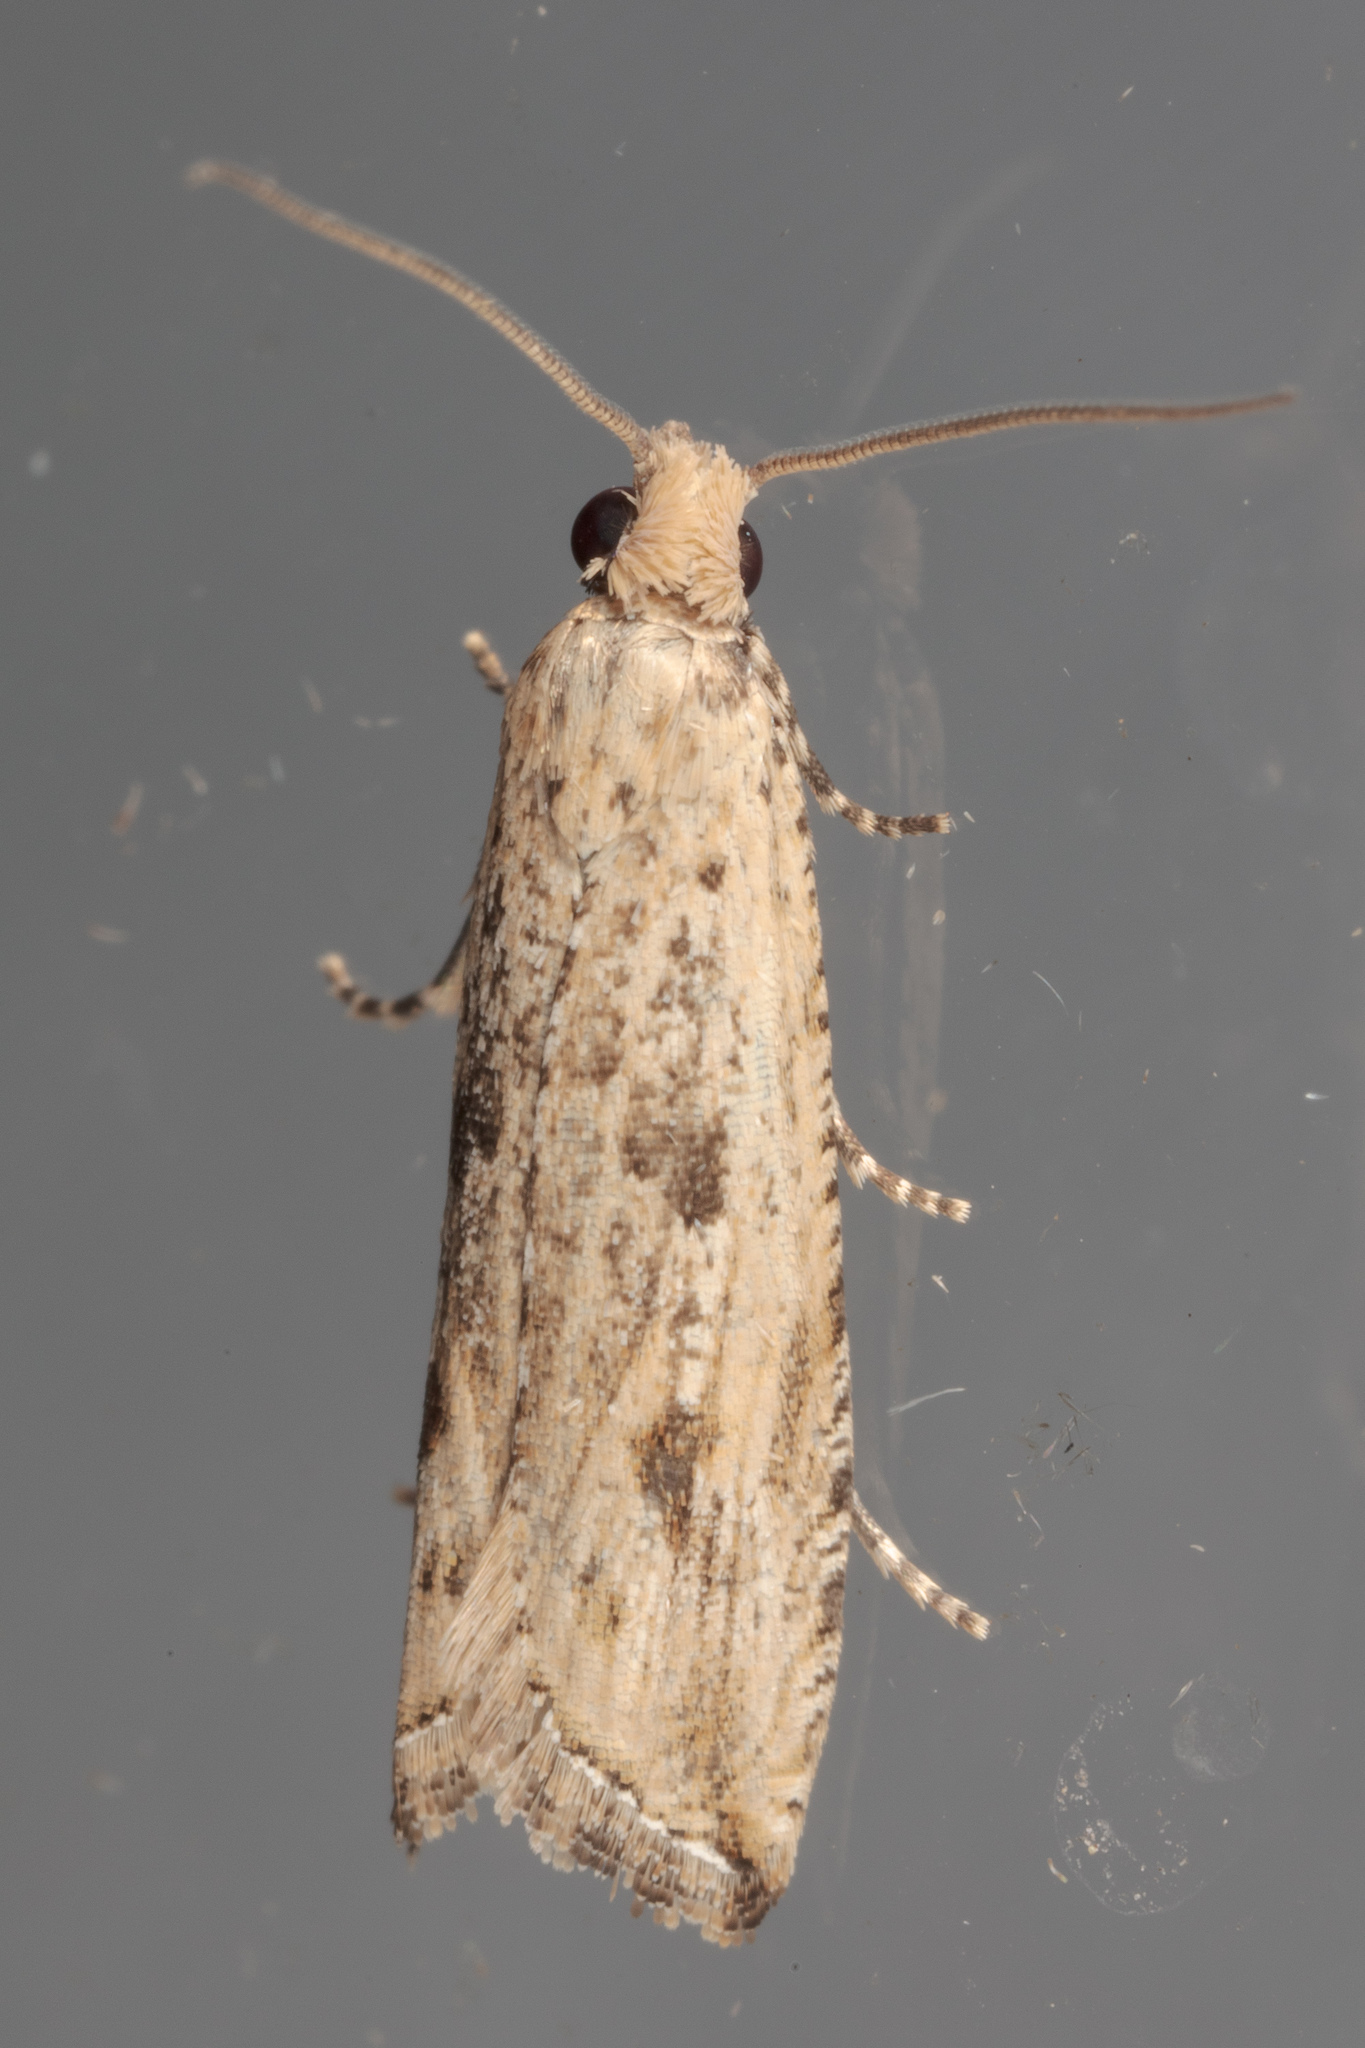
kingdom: Animalia
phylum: Arthropoda
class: Insecta
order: Lepidoptera
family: Tortricidae
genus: Bactra
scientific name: Bactra verutana
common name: Javelin moth
